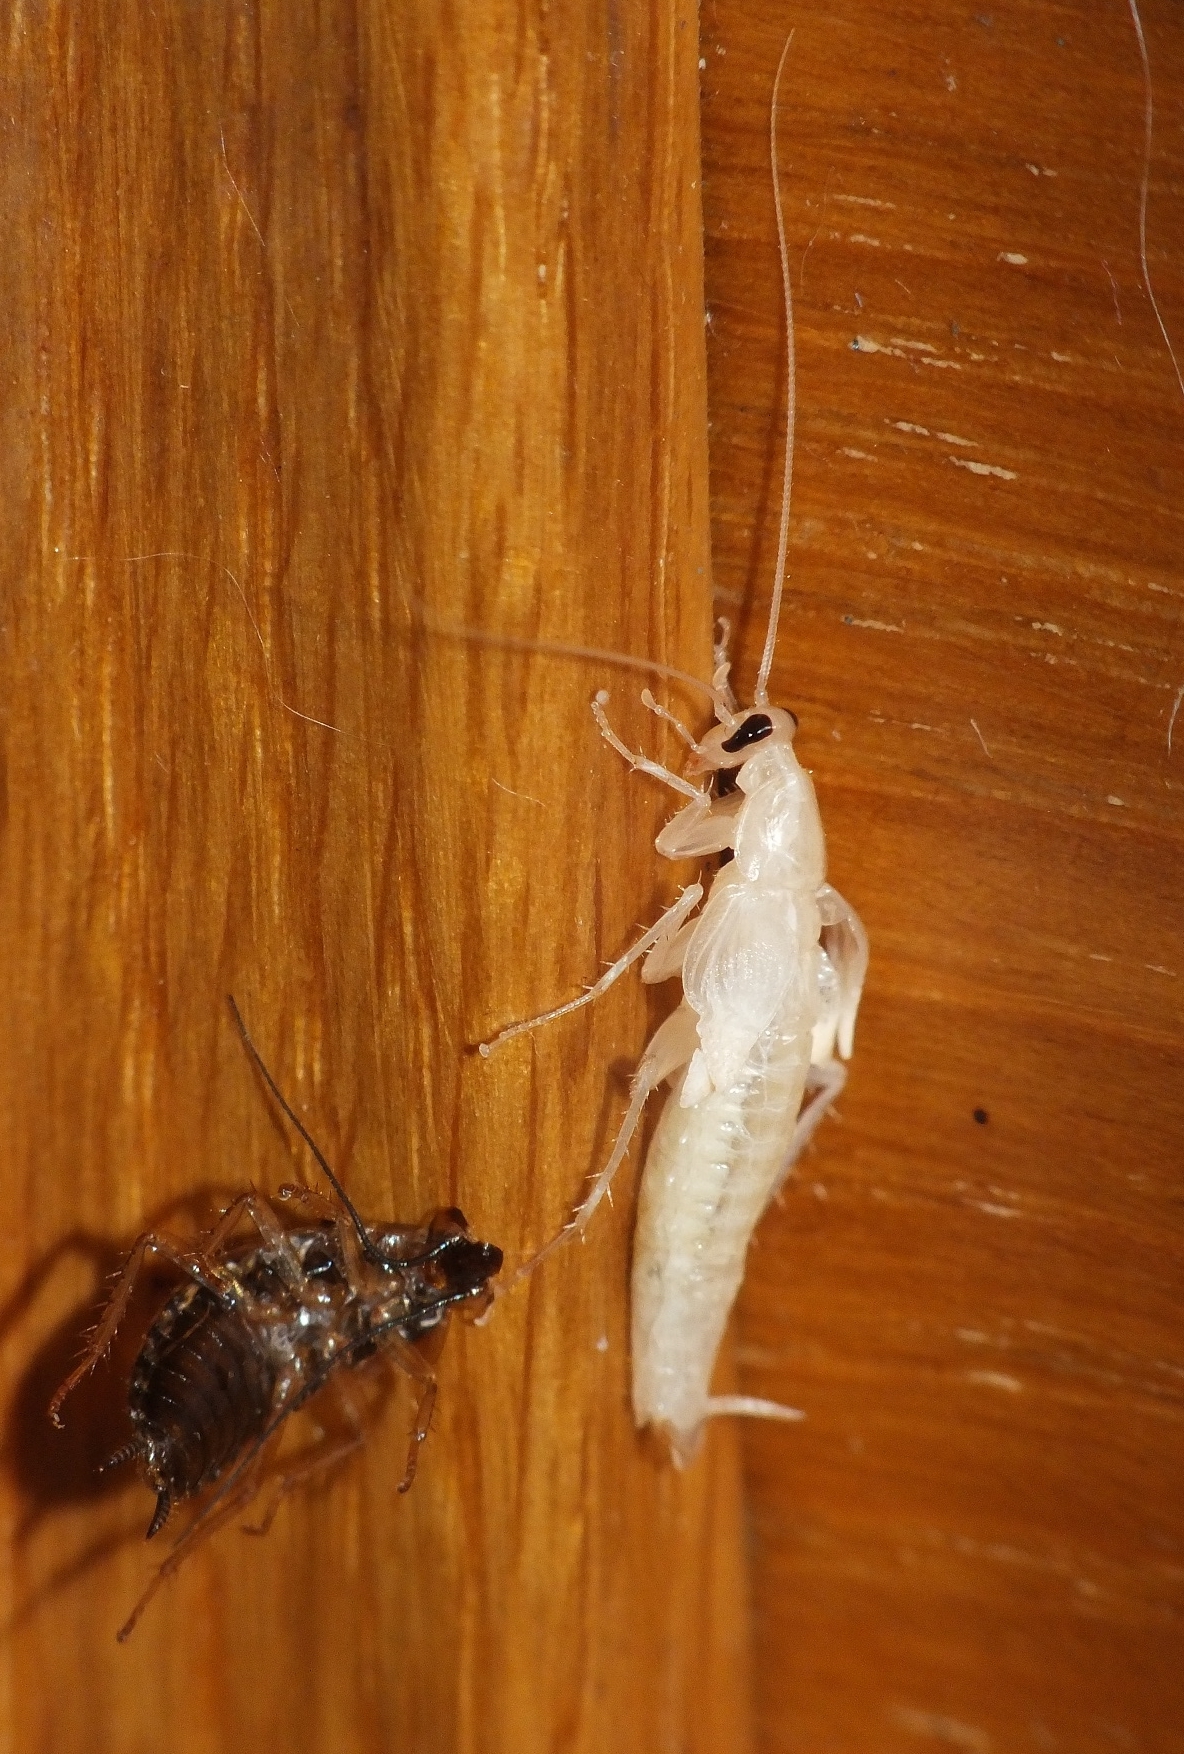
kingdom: Animalia
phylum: Arthropoda
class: Insecta
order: Blattodea
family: Ectobiidae
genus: Blattella
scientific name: Blattella germanica
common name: German cockroach
